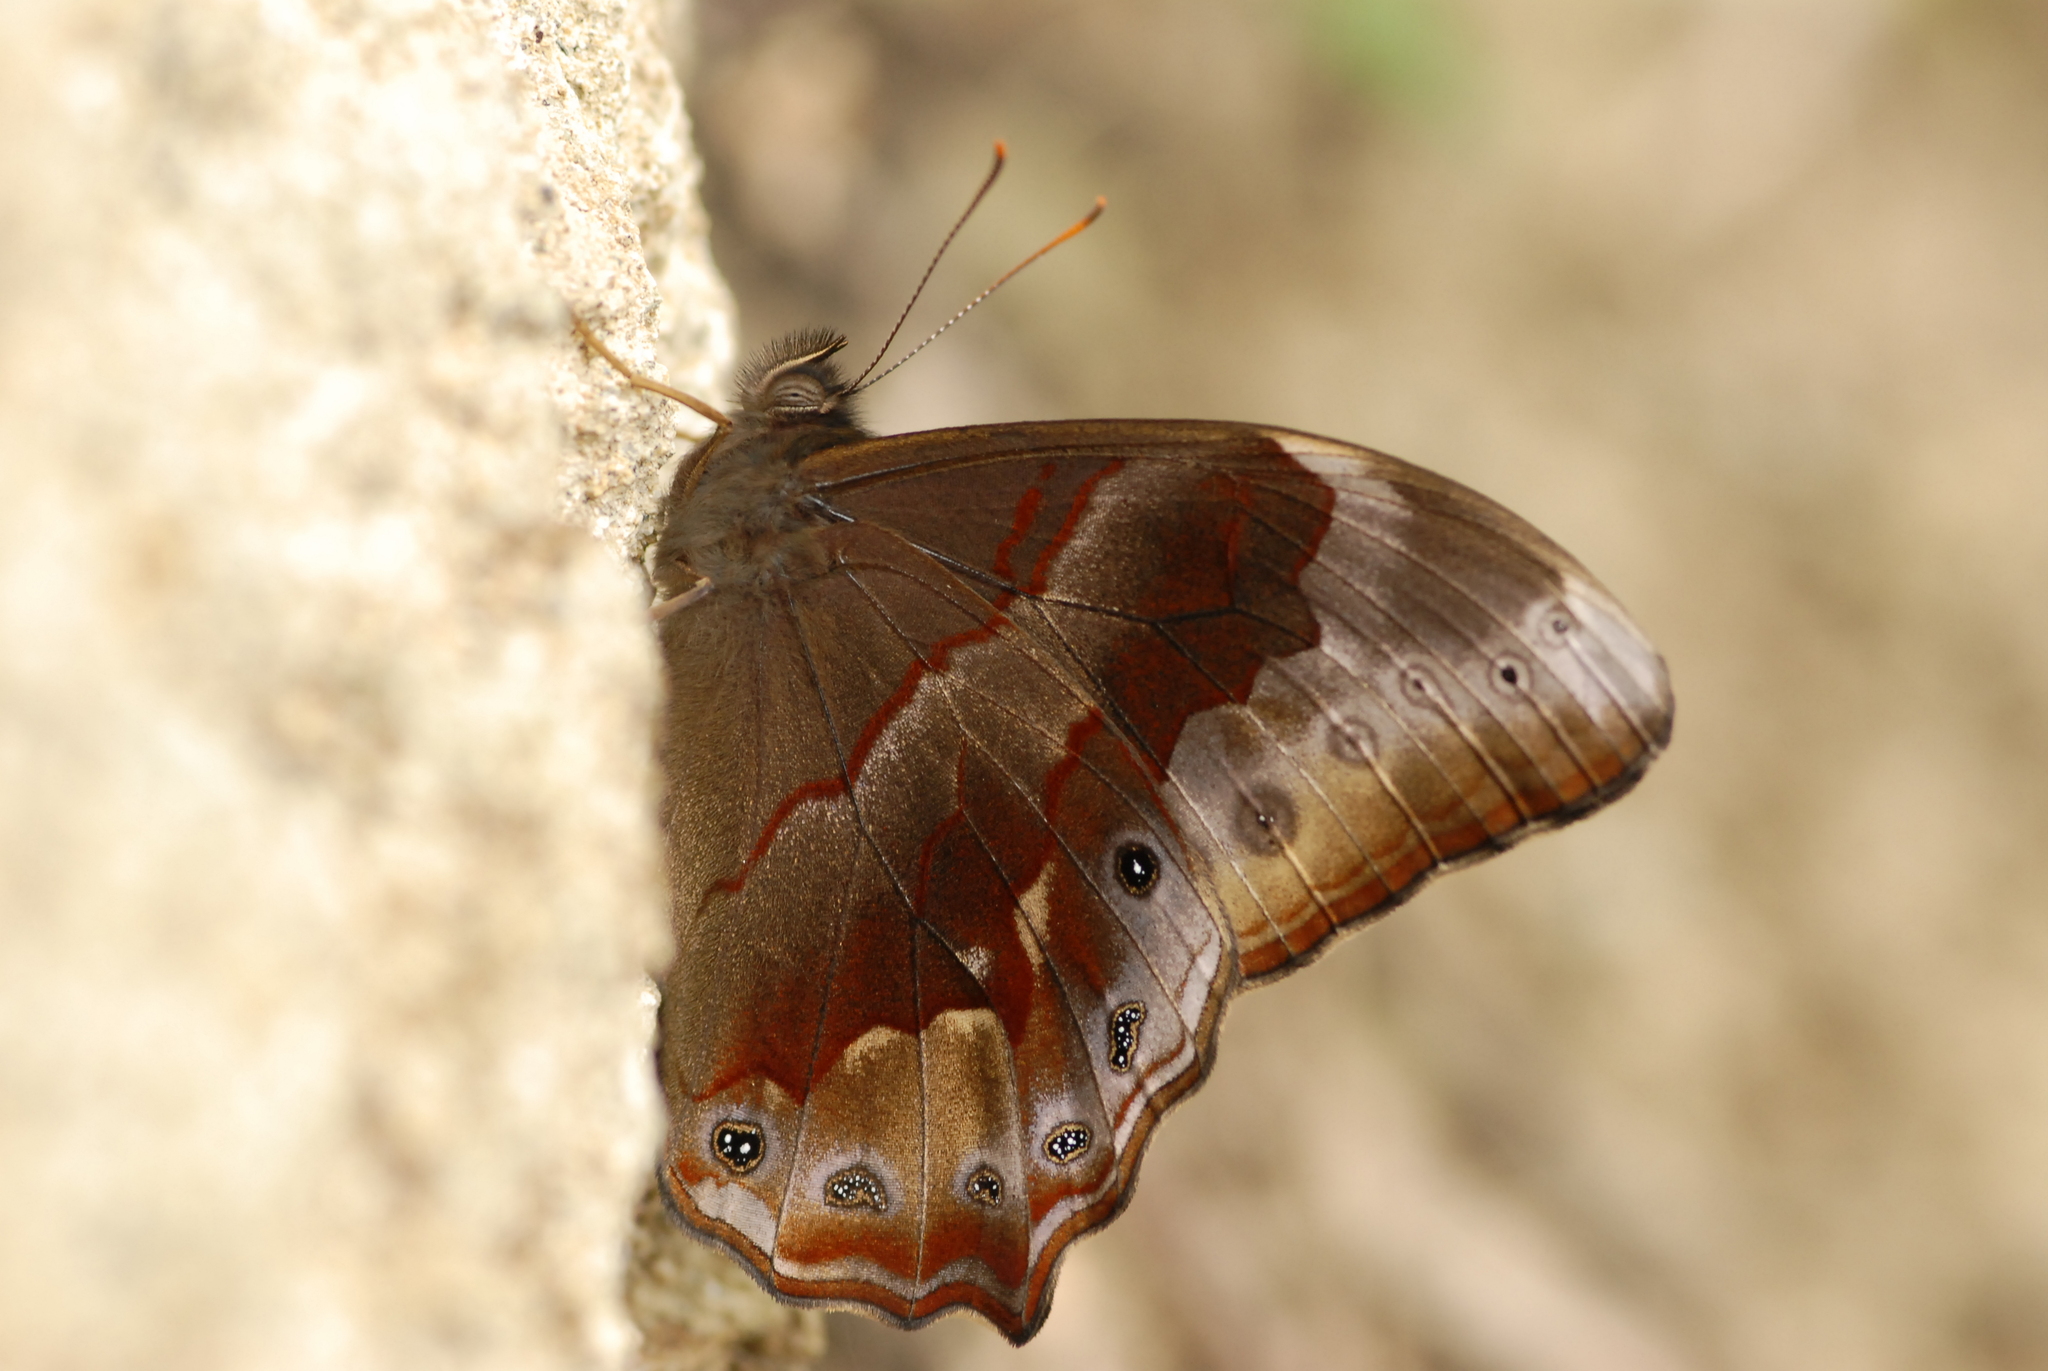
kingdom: Animalia
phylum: Arthropoda
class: Insecta
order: Lepidoptera
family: Nymphalidae
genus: Lethe
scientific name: Lethe chandica
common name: Angled red forester
